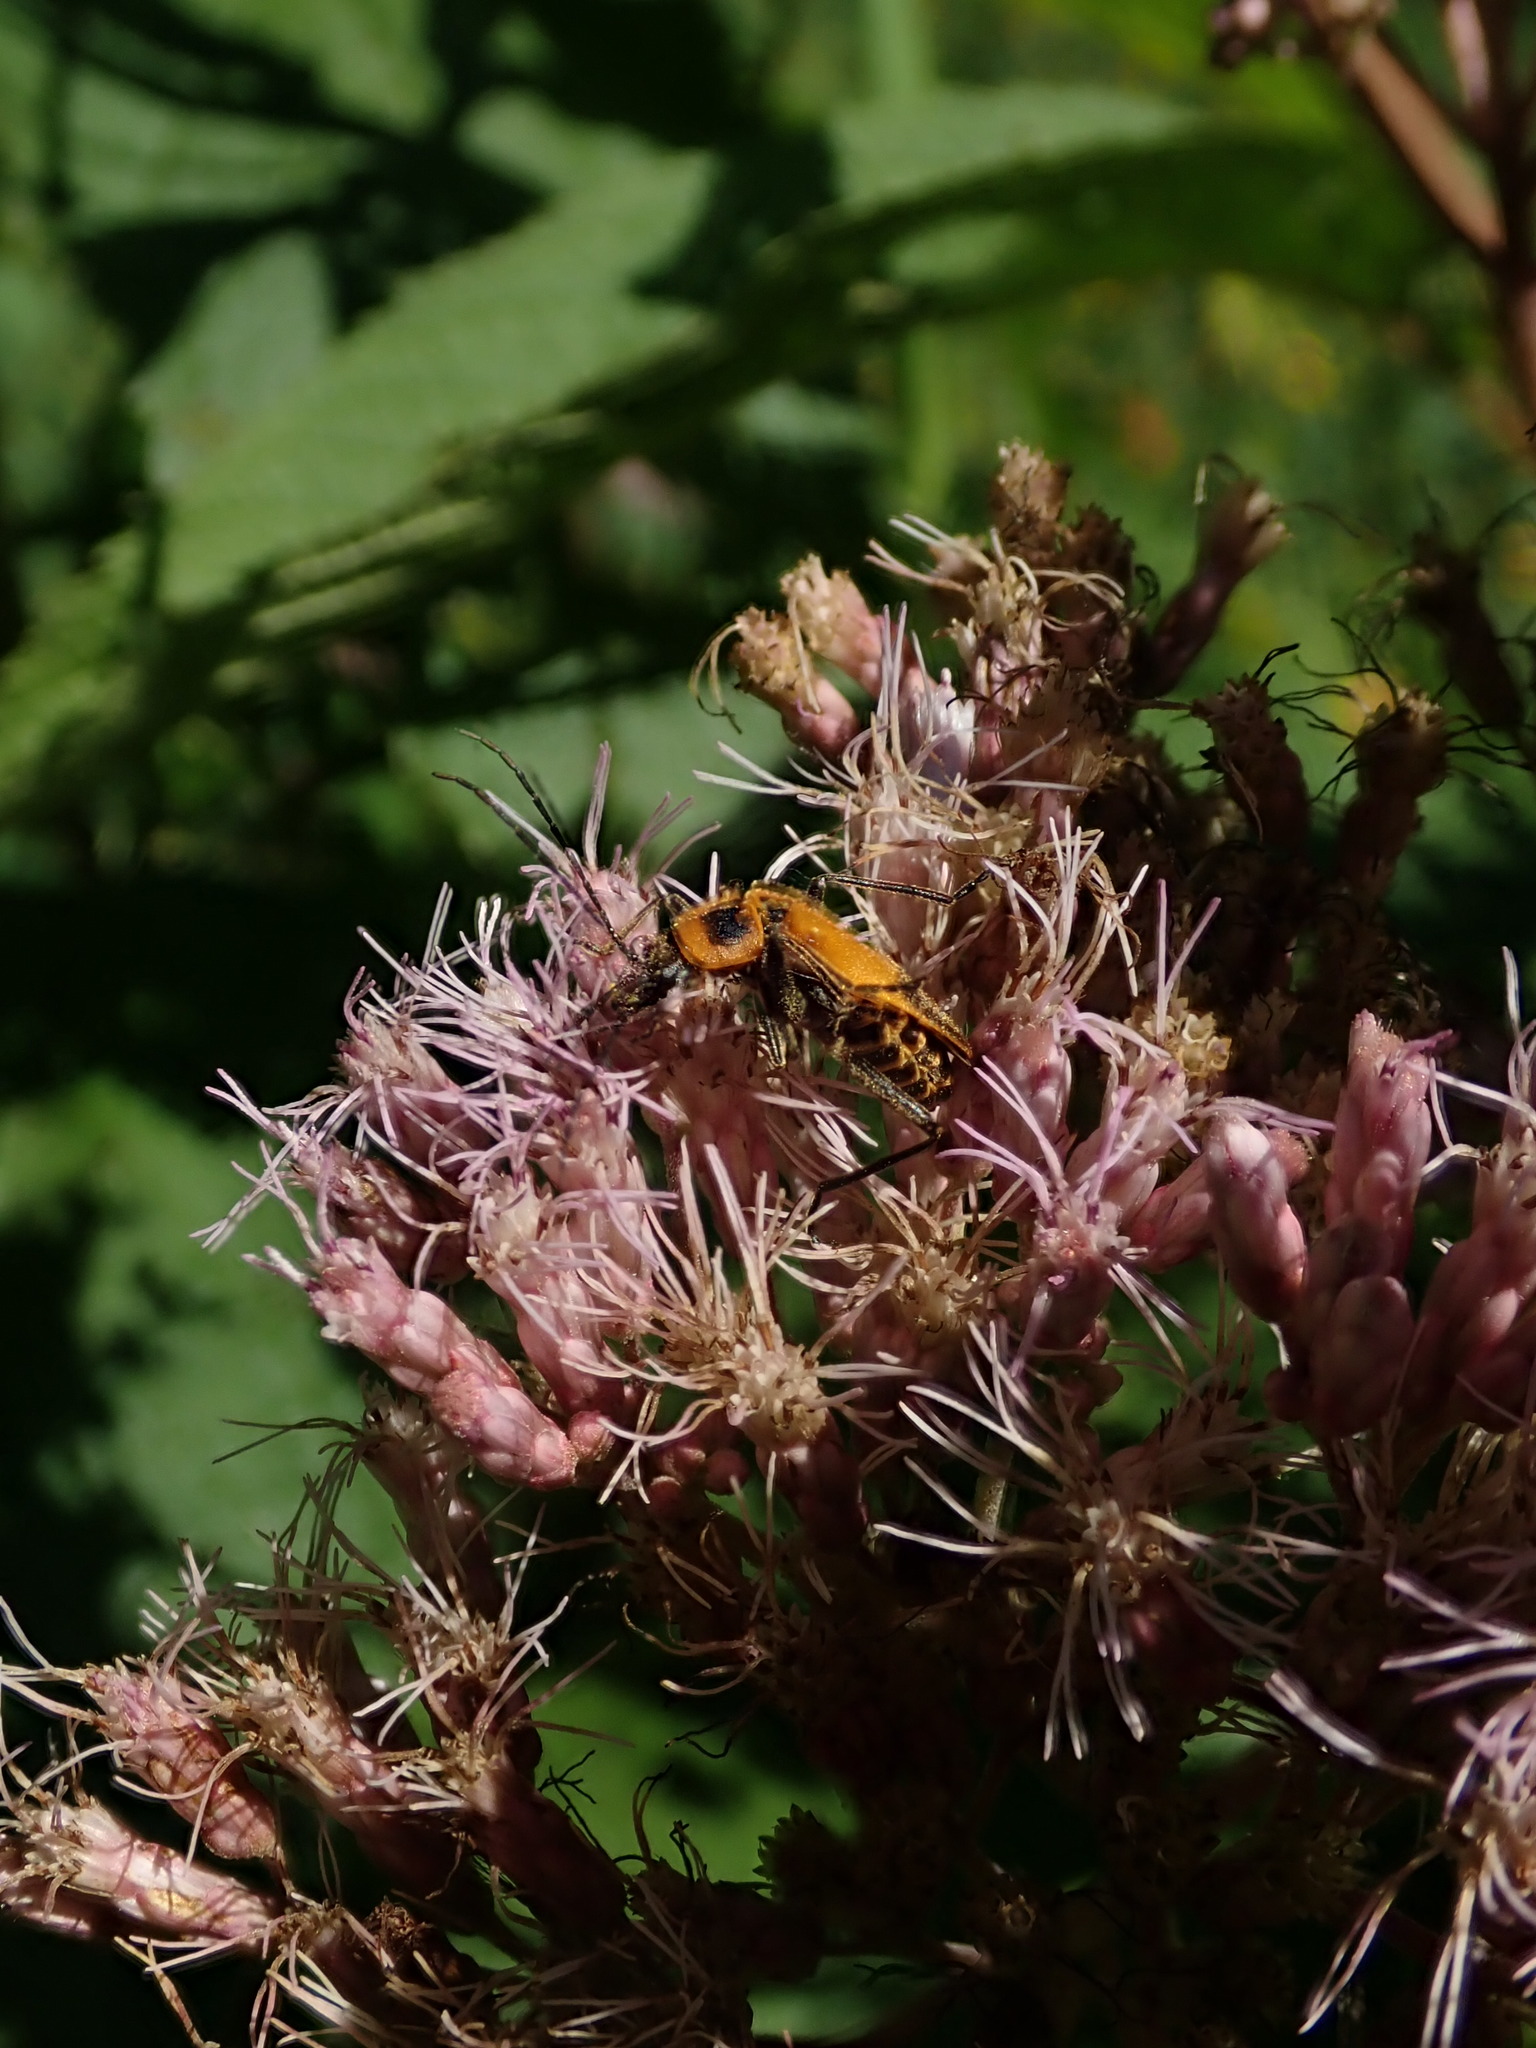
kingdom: Animalia
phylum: Arthropoda
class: Insecta
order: Coleoptera
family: Cantharidae
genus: Chauliognathus
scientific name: Chauliognathus pensylvanicus
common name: Goldenrod soldier beetle
